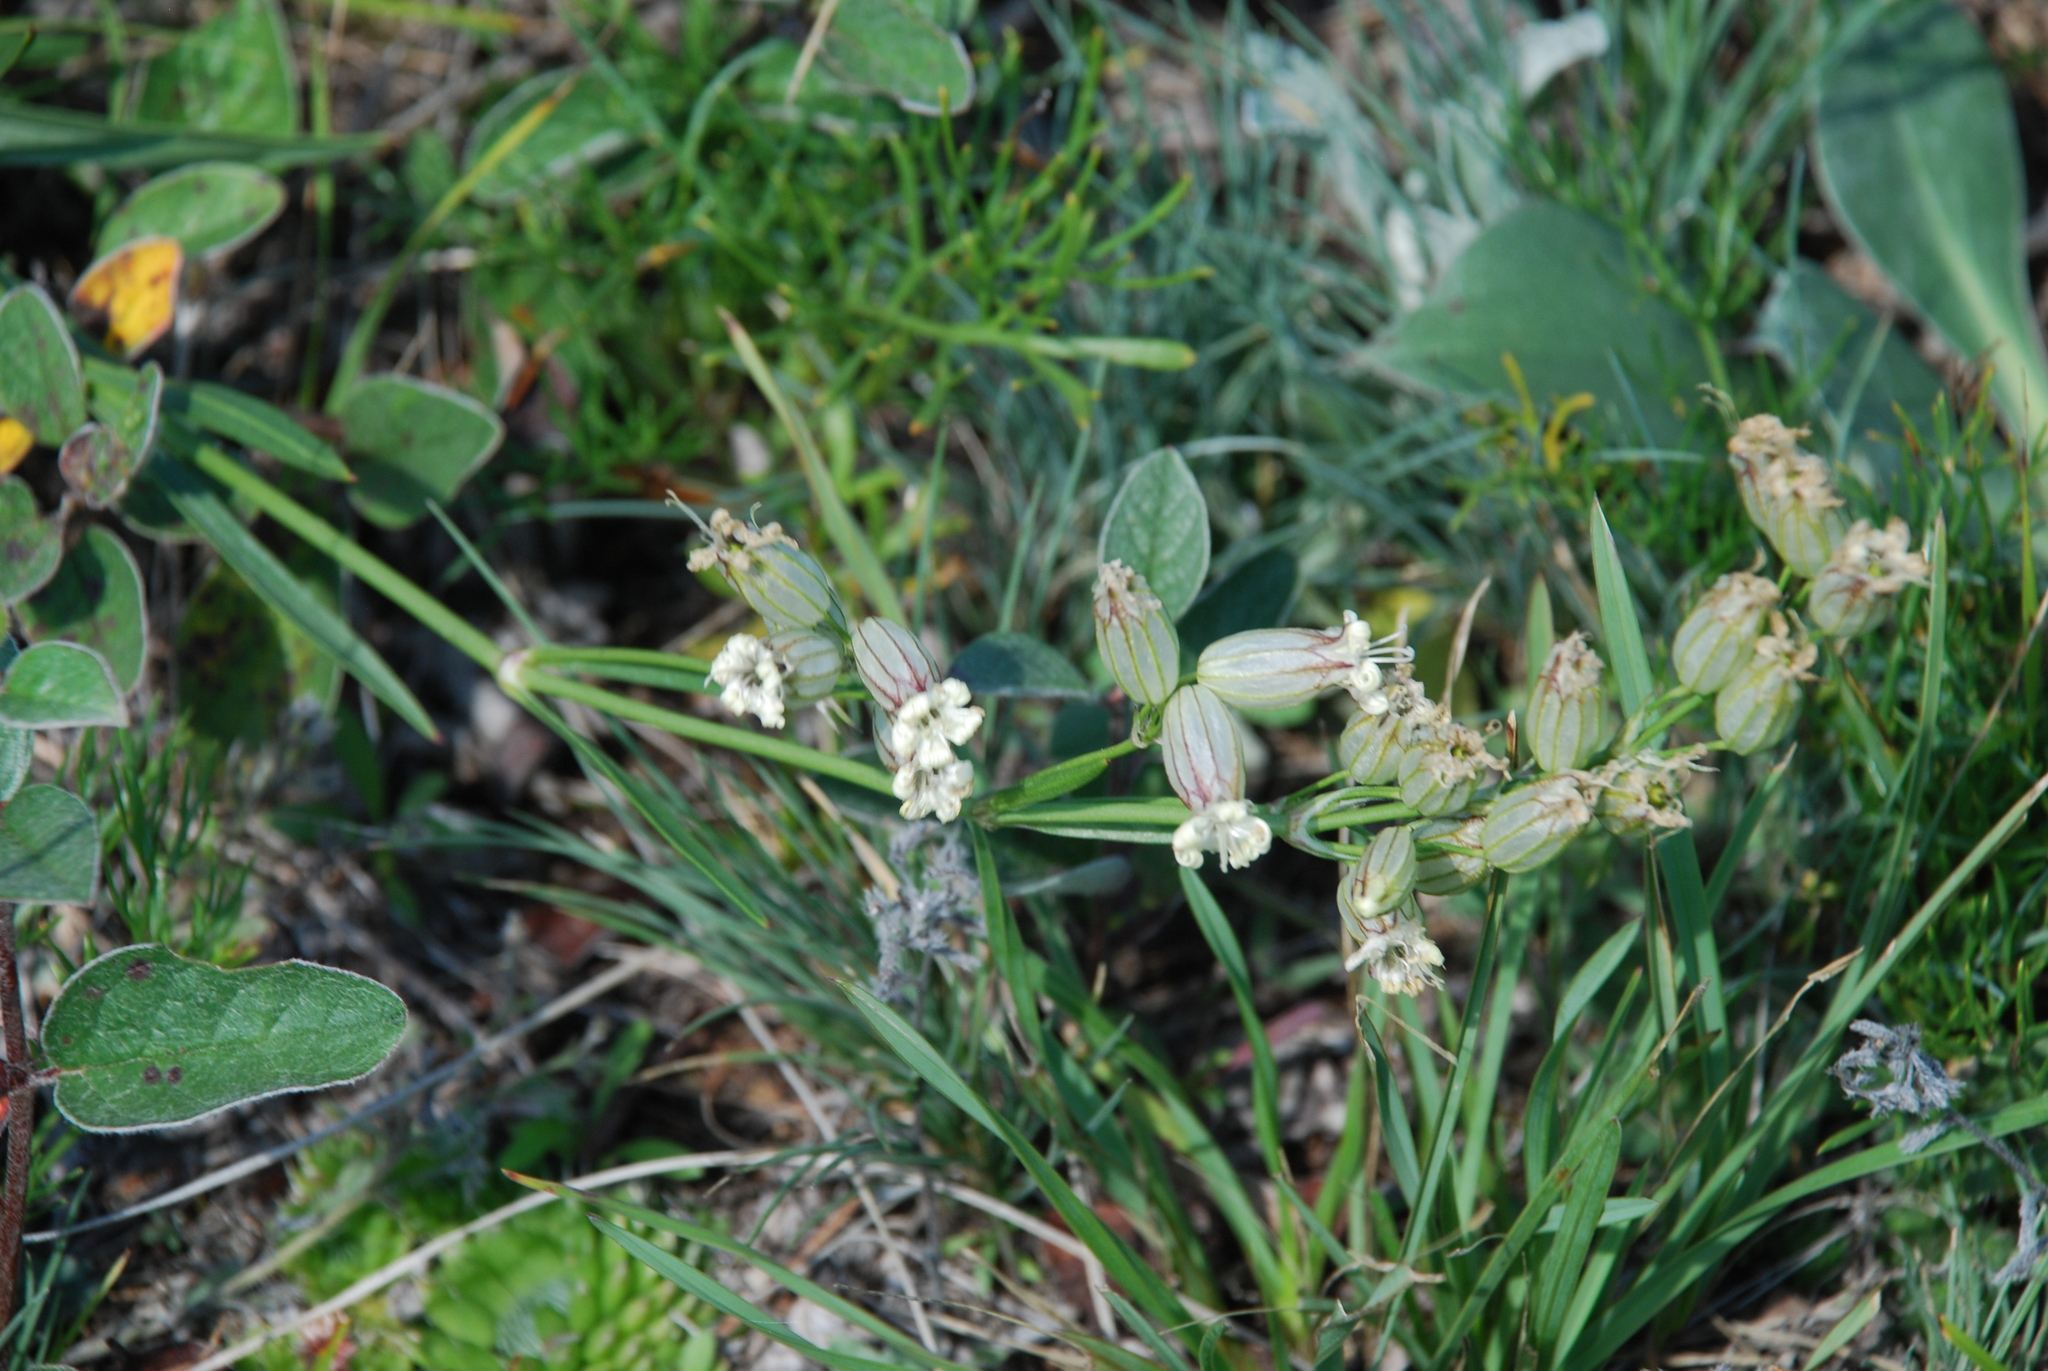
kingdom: Plantae
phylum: Tracheophyta
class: Magnoliopsida
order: Caryophyllales
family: Caryophyllaceae
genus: Silene
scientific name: Silene jeniseensis
